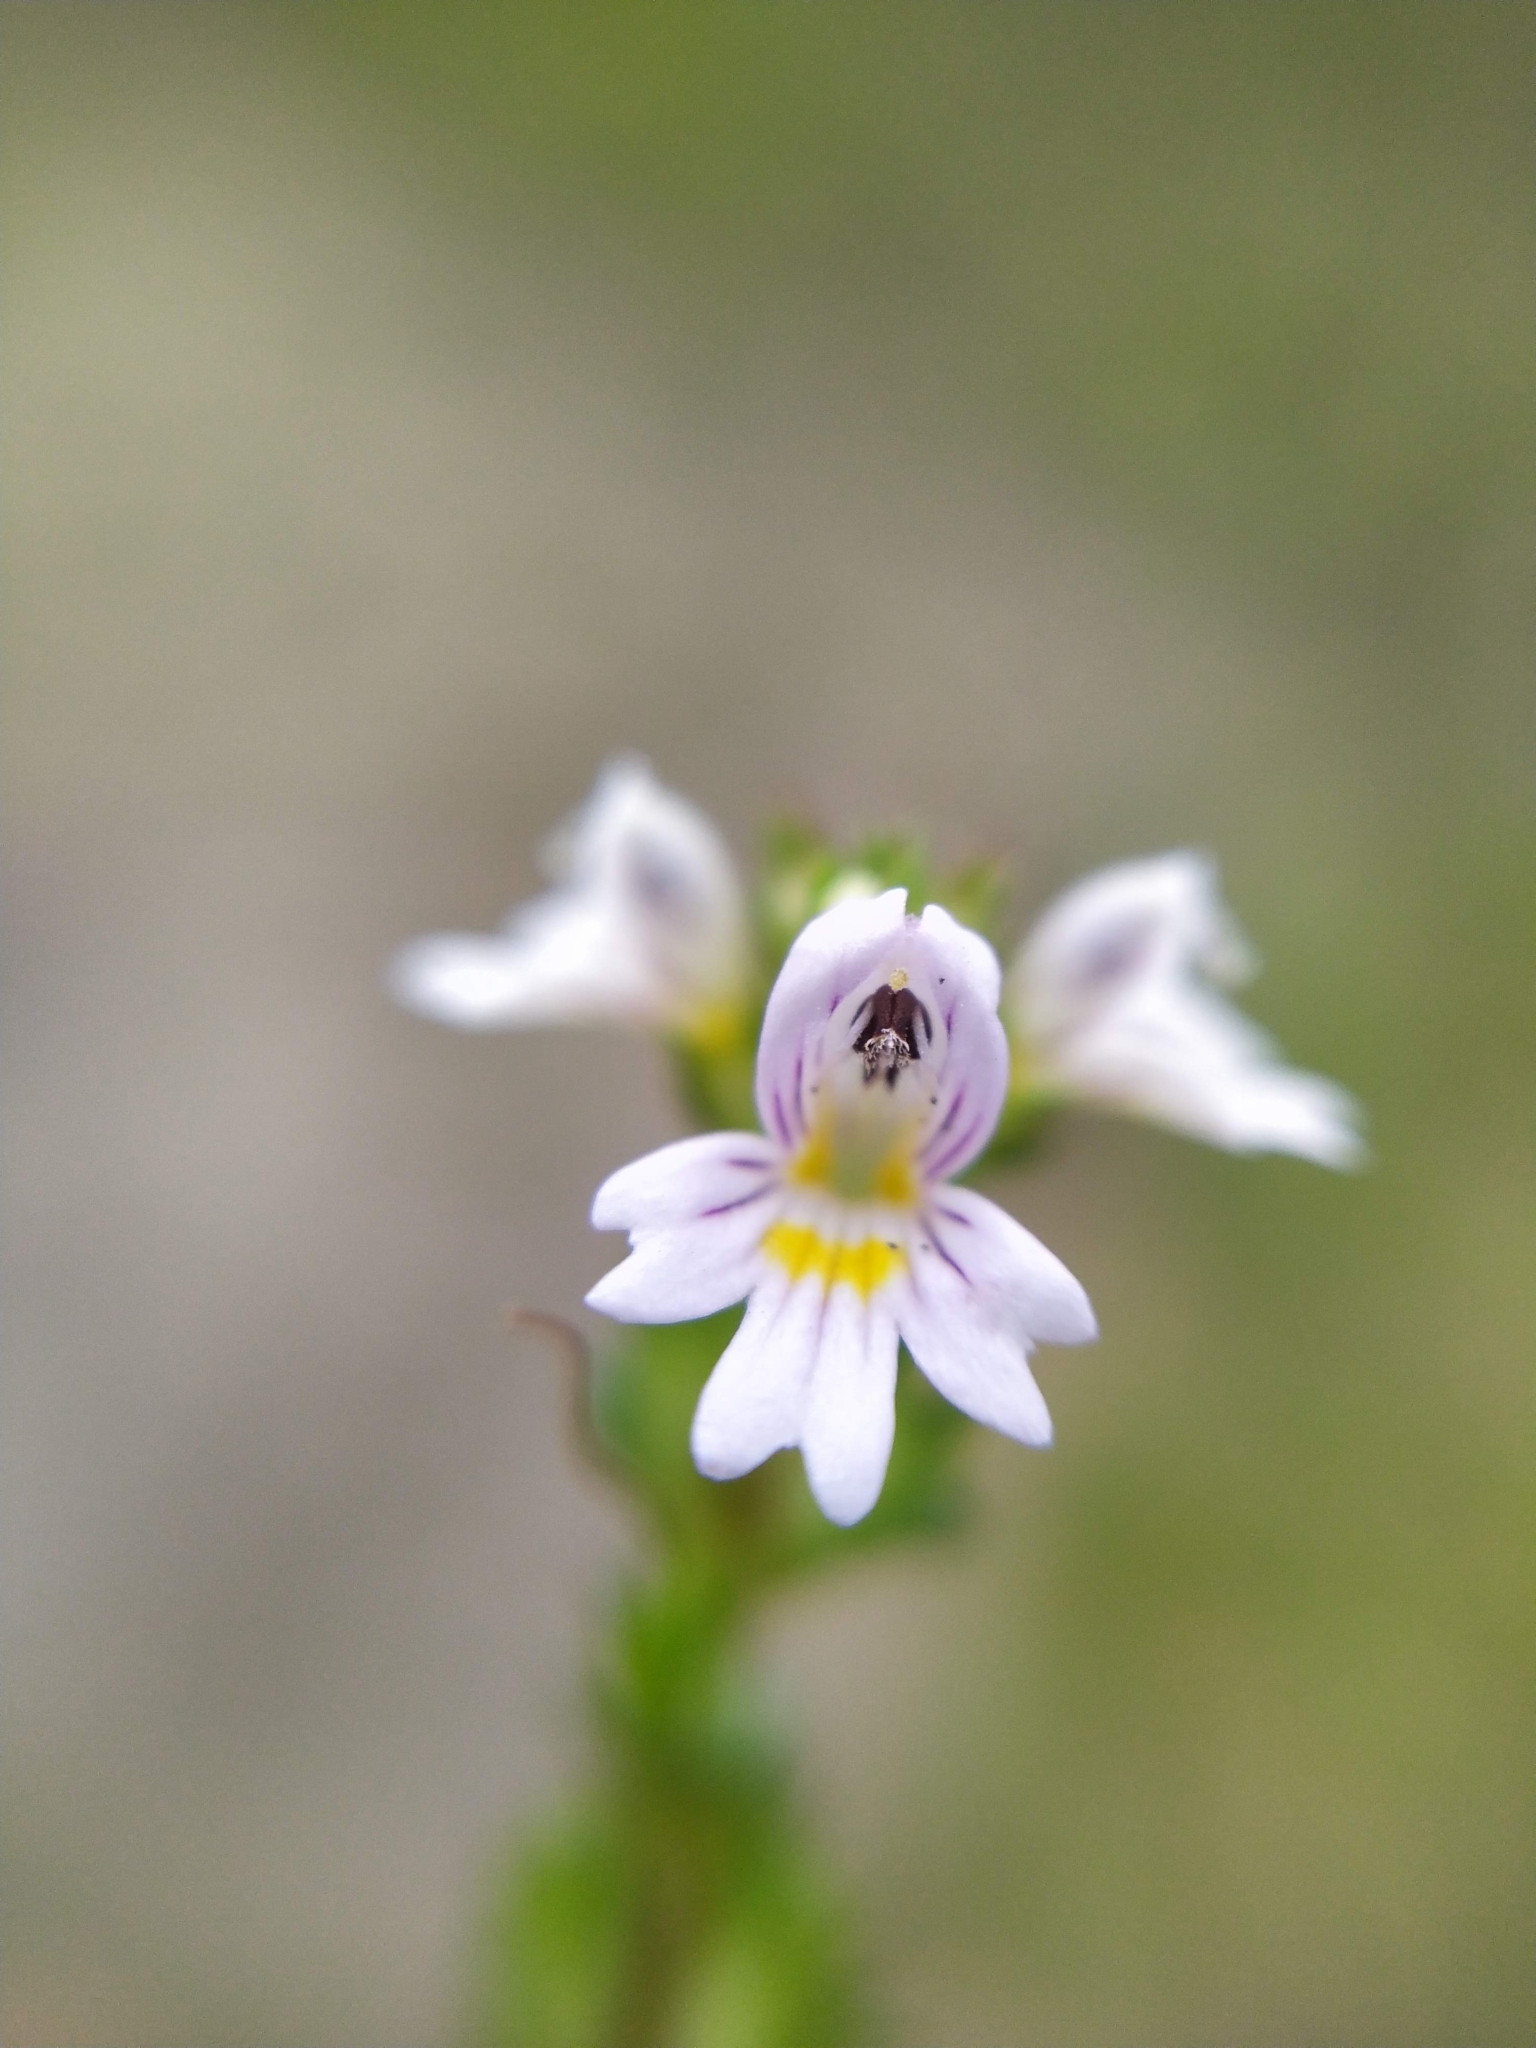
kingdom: Plantae
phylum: Tracheophyta
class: Magnoliopsida
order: Lamiales
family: Orobanchaceae
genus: Euphrasia
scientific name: Euphrasia stricta
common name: Drug eyebright
